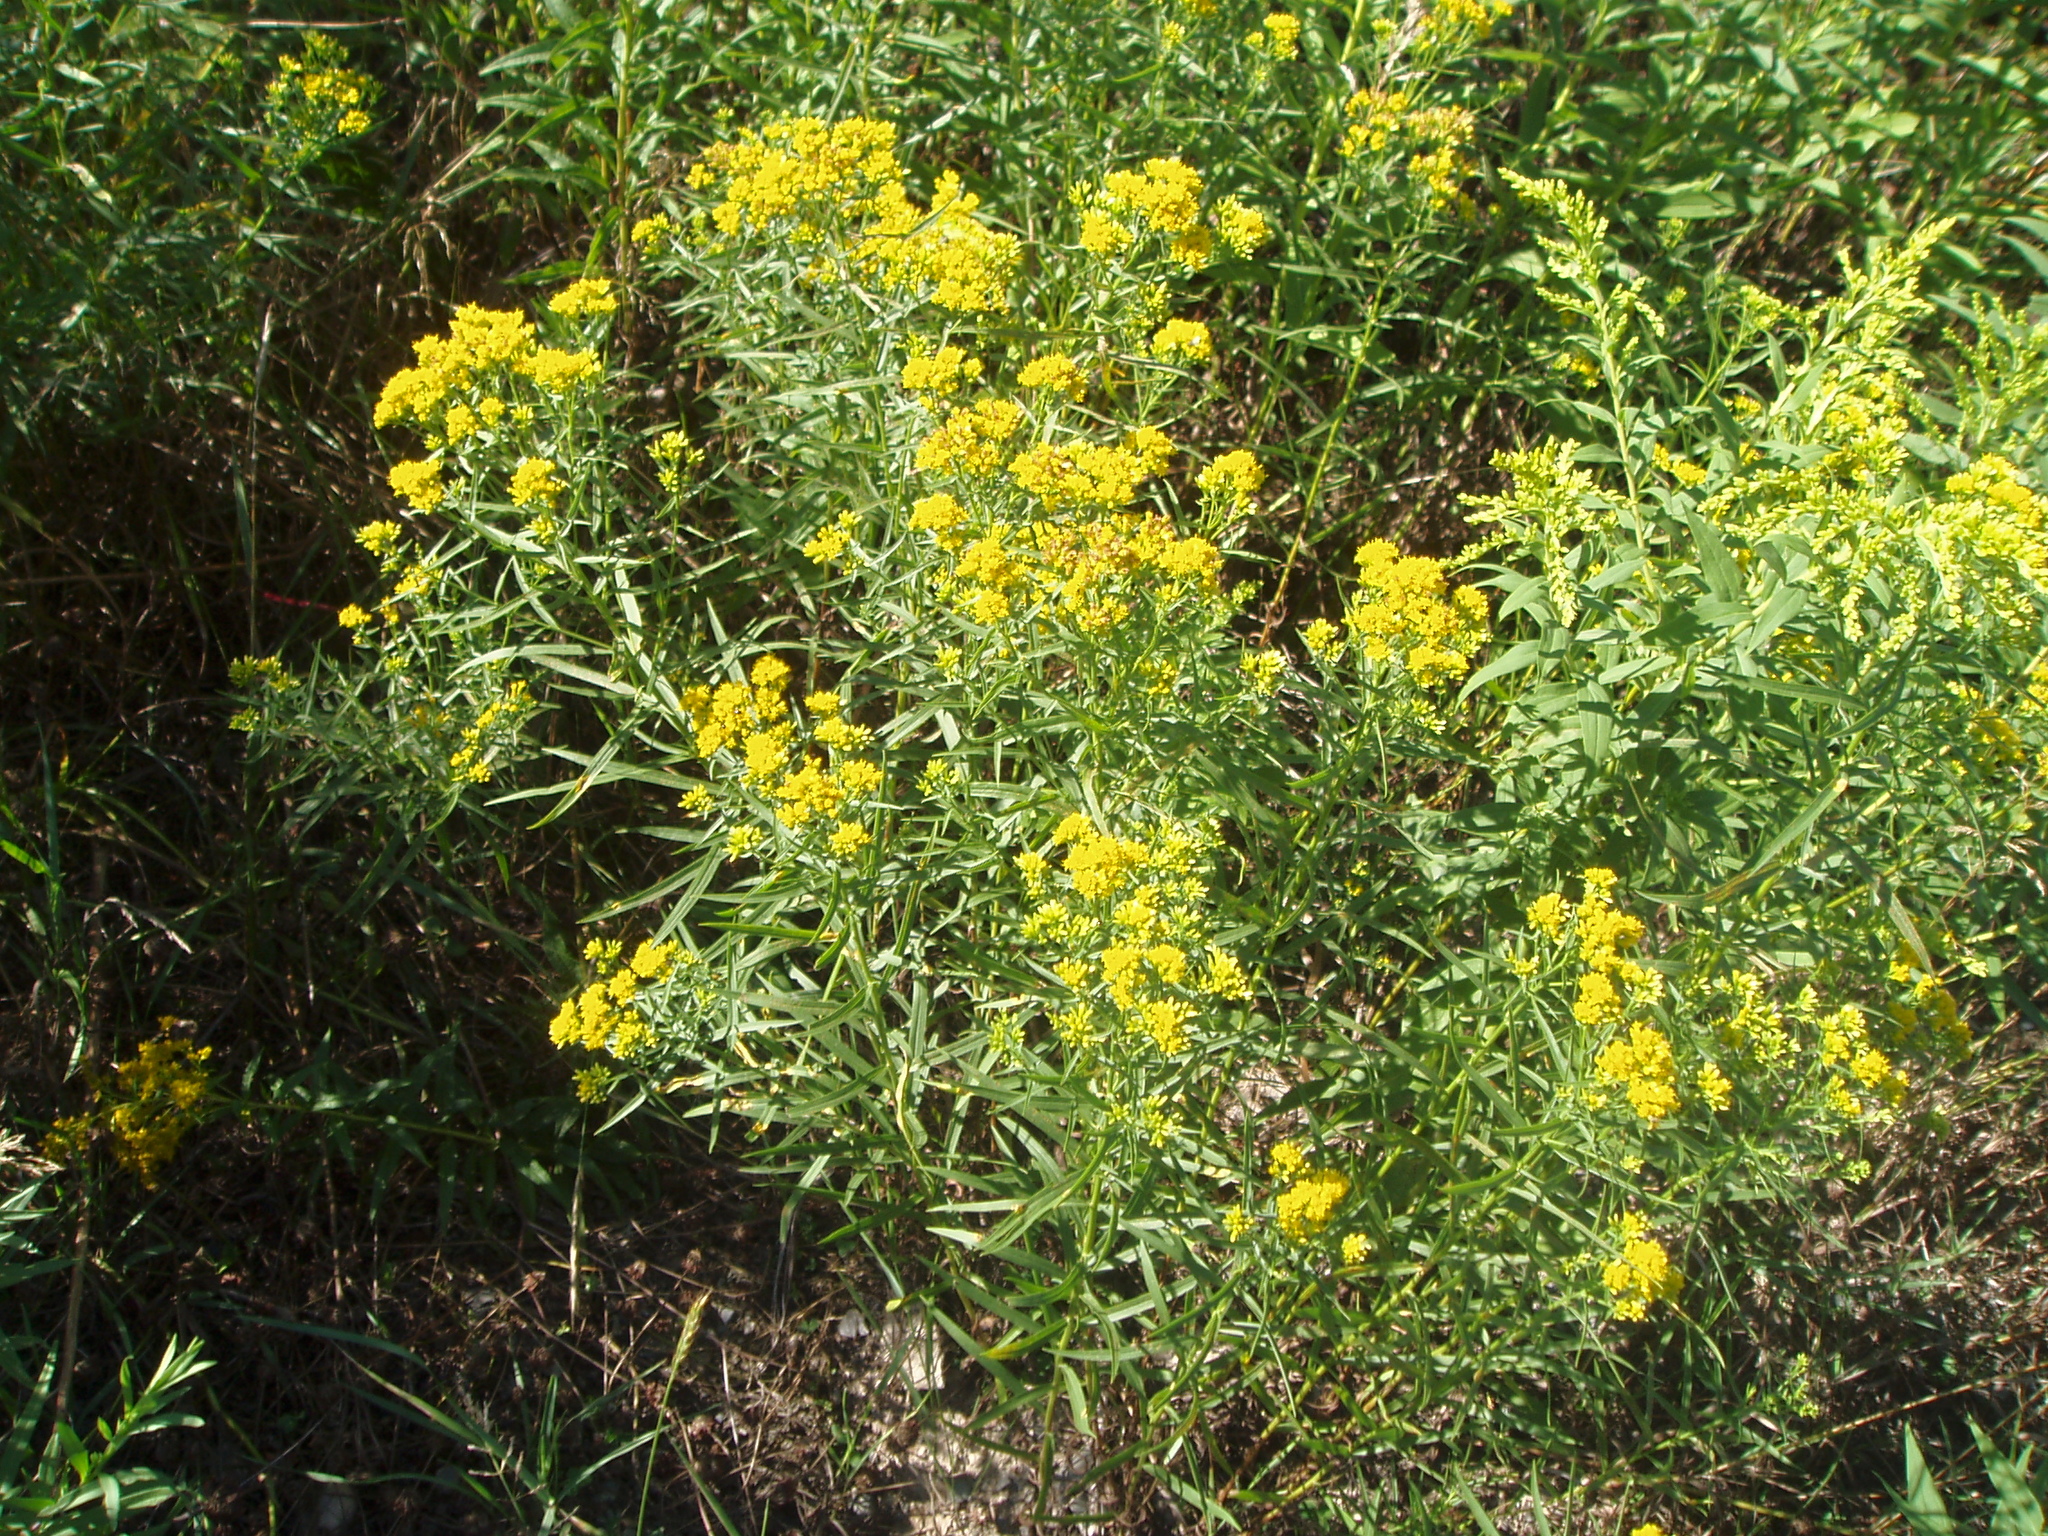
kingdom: Plantae
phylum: Tracheophyta
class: Magnoliopsida
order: Asterales
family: Asteraceae
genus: Euthamia
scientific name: Euthamia graminifolia
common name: Common goldentop
